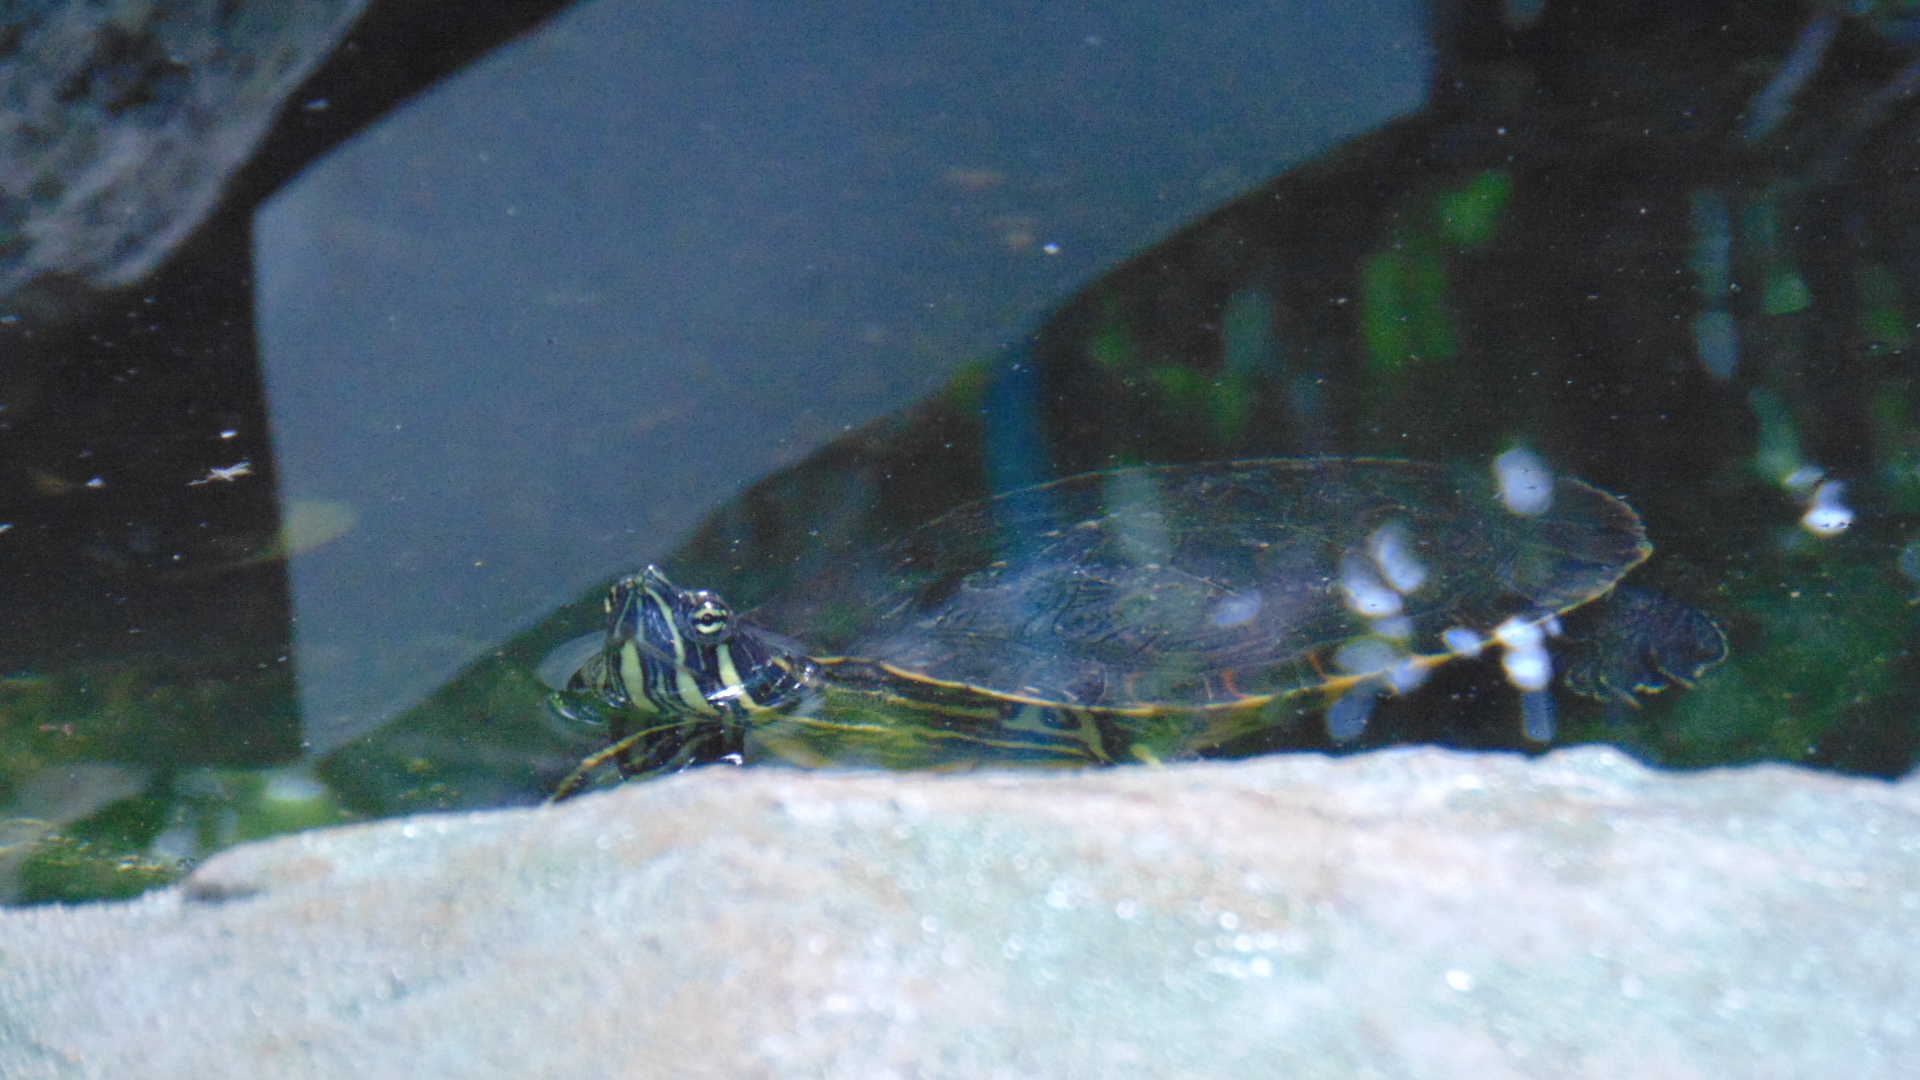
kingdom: Animalia
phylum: Chordata
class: Testudines
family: Emydidae
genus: Trachemys
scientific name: Trachemys venusta
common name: Mesoamerican slider
